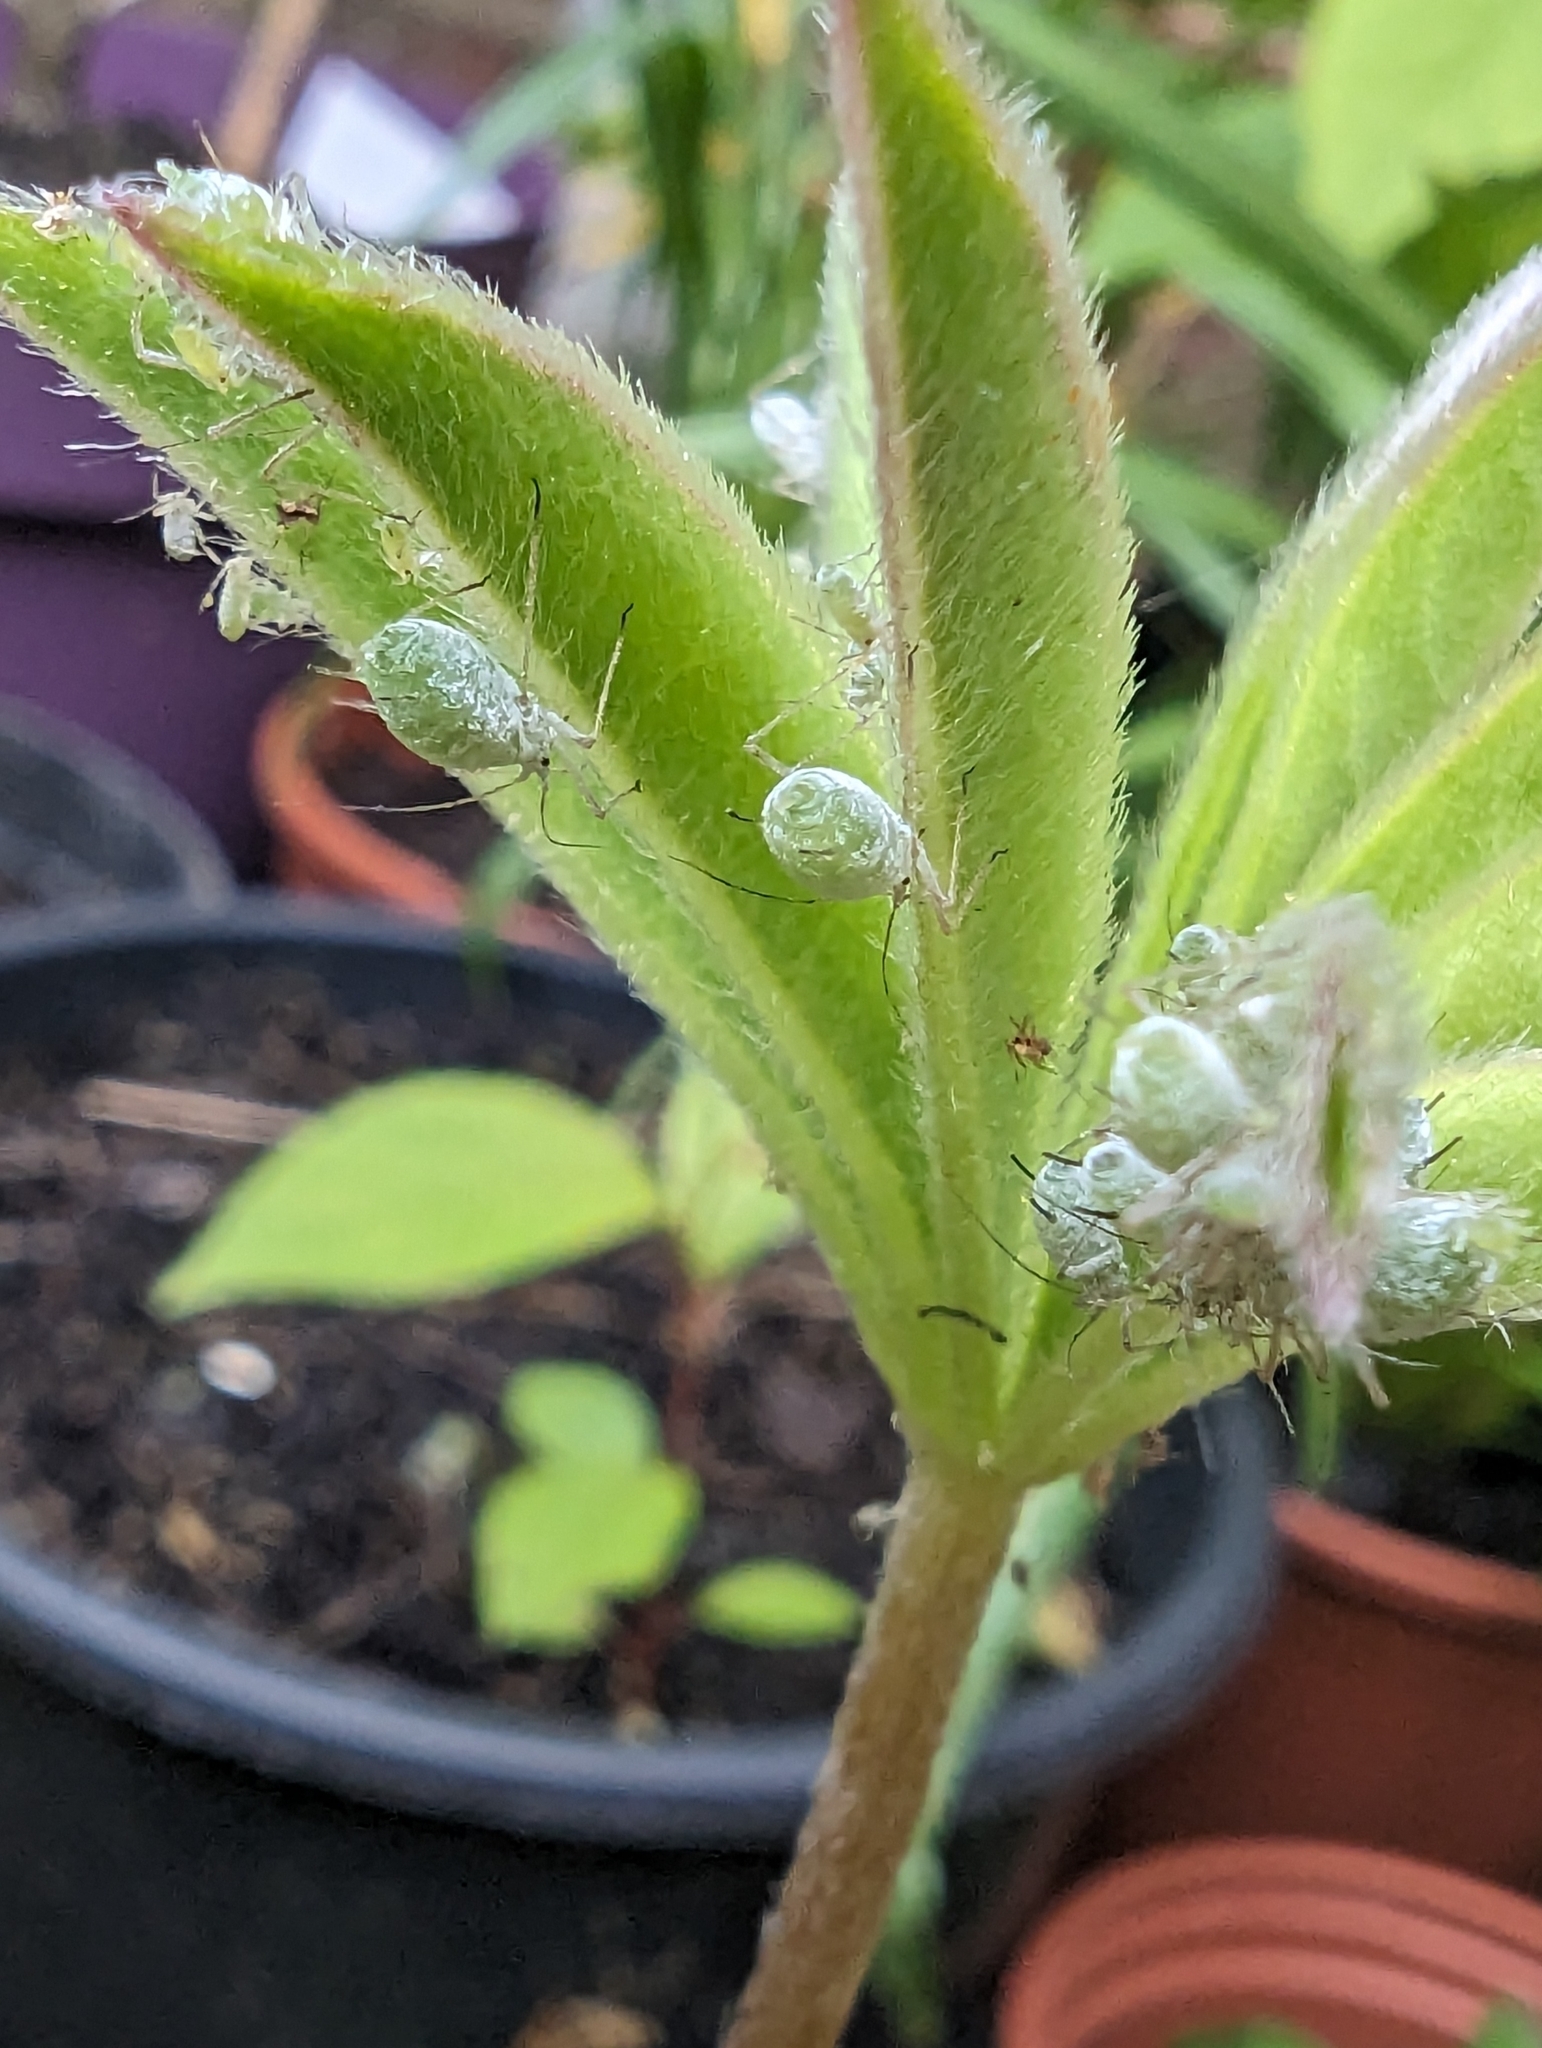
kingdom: Animalia
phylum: Arthropoda
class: Insecta
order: Hemiptera
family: Aphididae
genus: Macrosiphum
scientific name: Macrosiphum albifrons
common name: Lupine aphid
